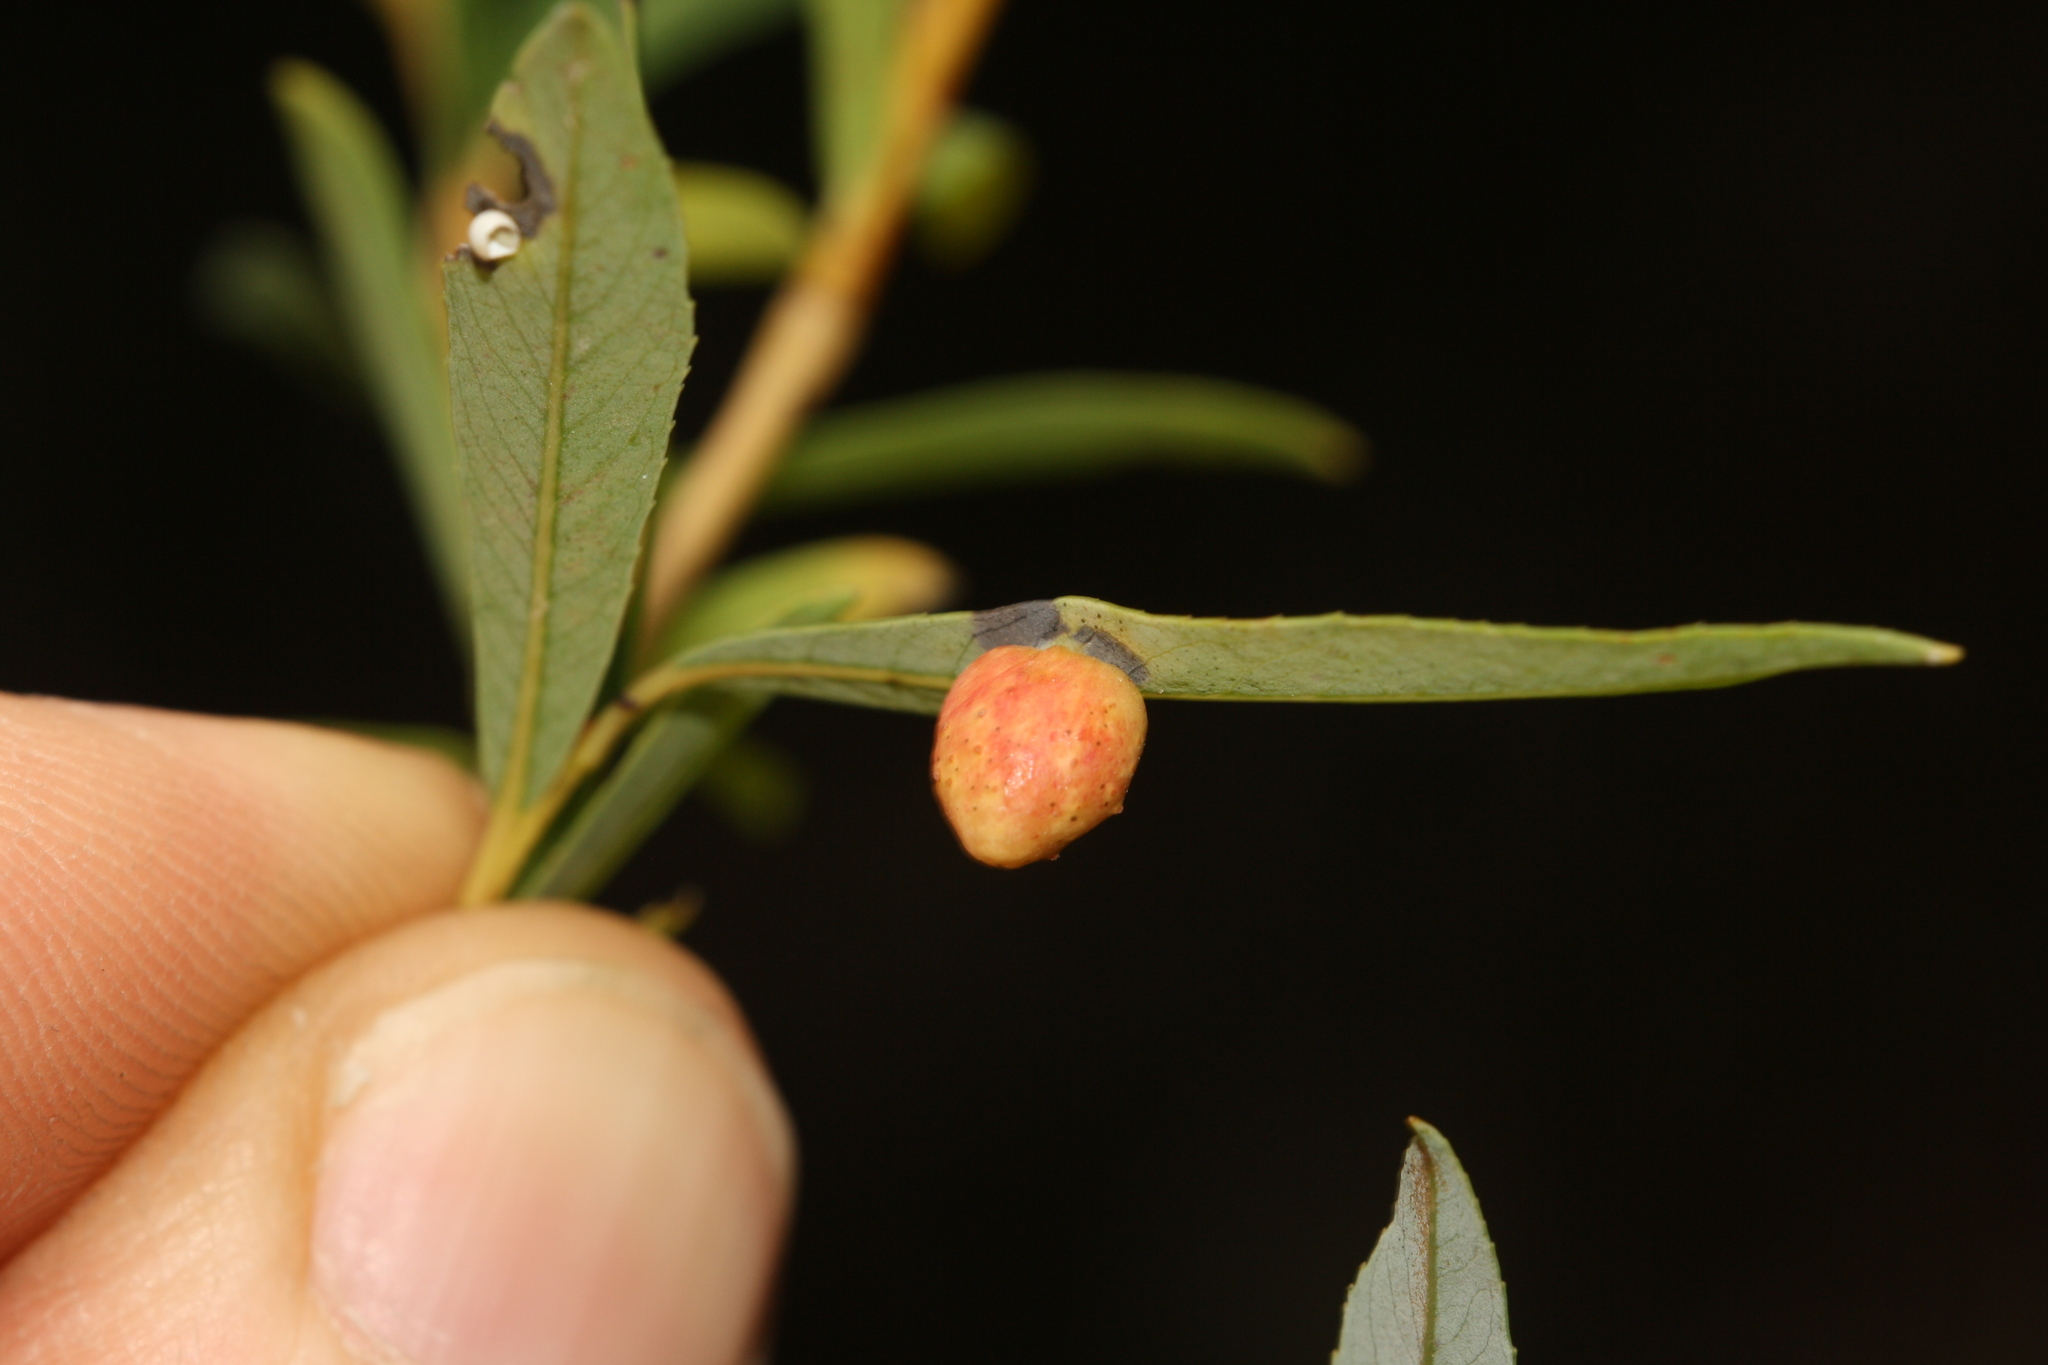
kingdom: Animalia
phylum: Arthropoda
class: Insecta
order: Hymenoptera
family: Tenthredinidae
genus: Euura
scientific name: Euura viminalis
